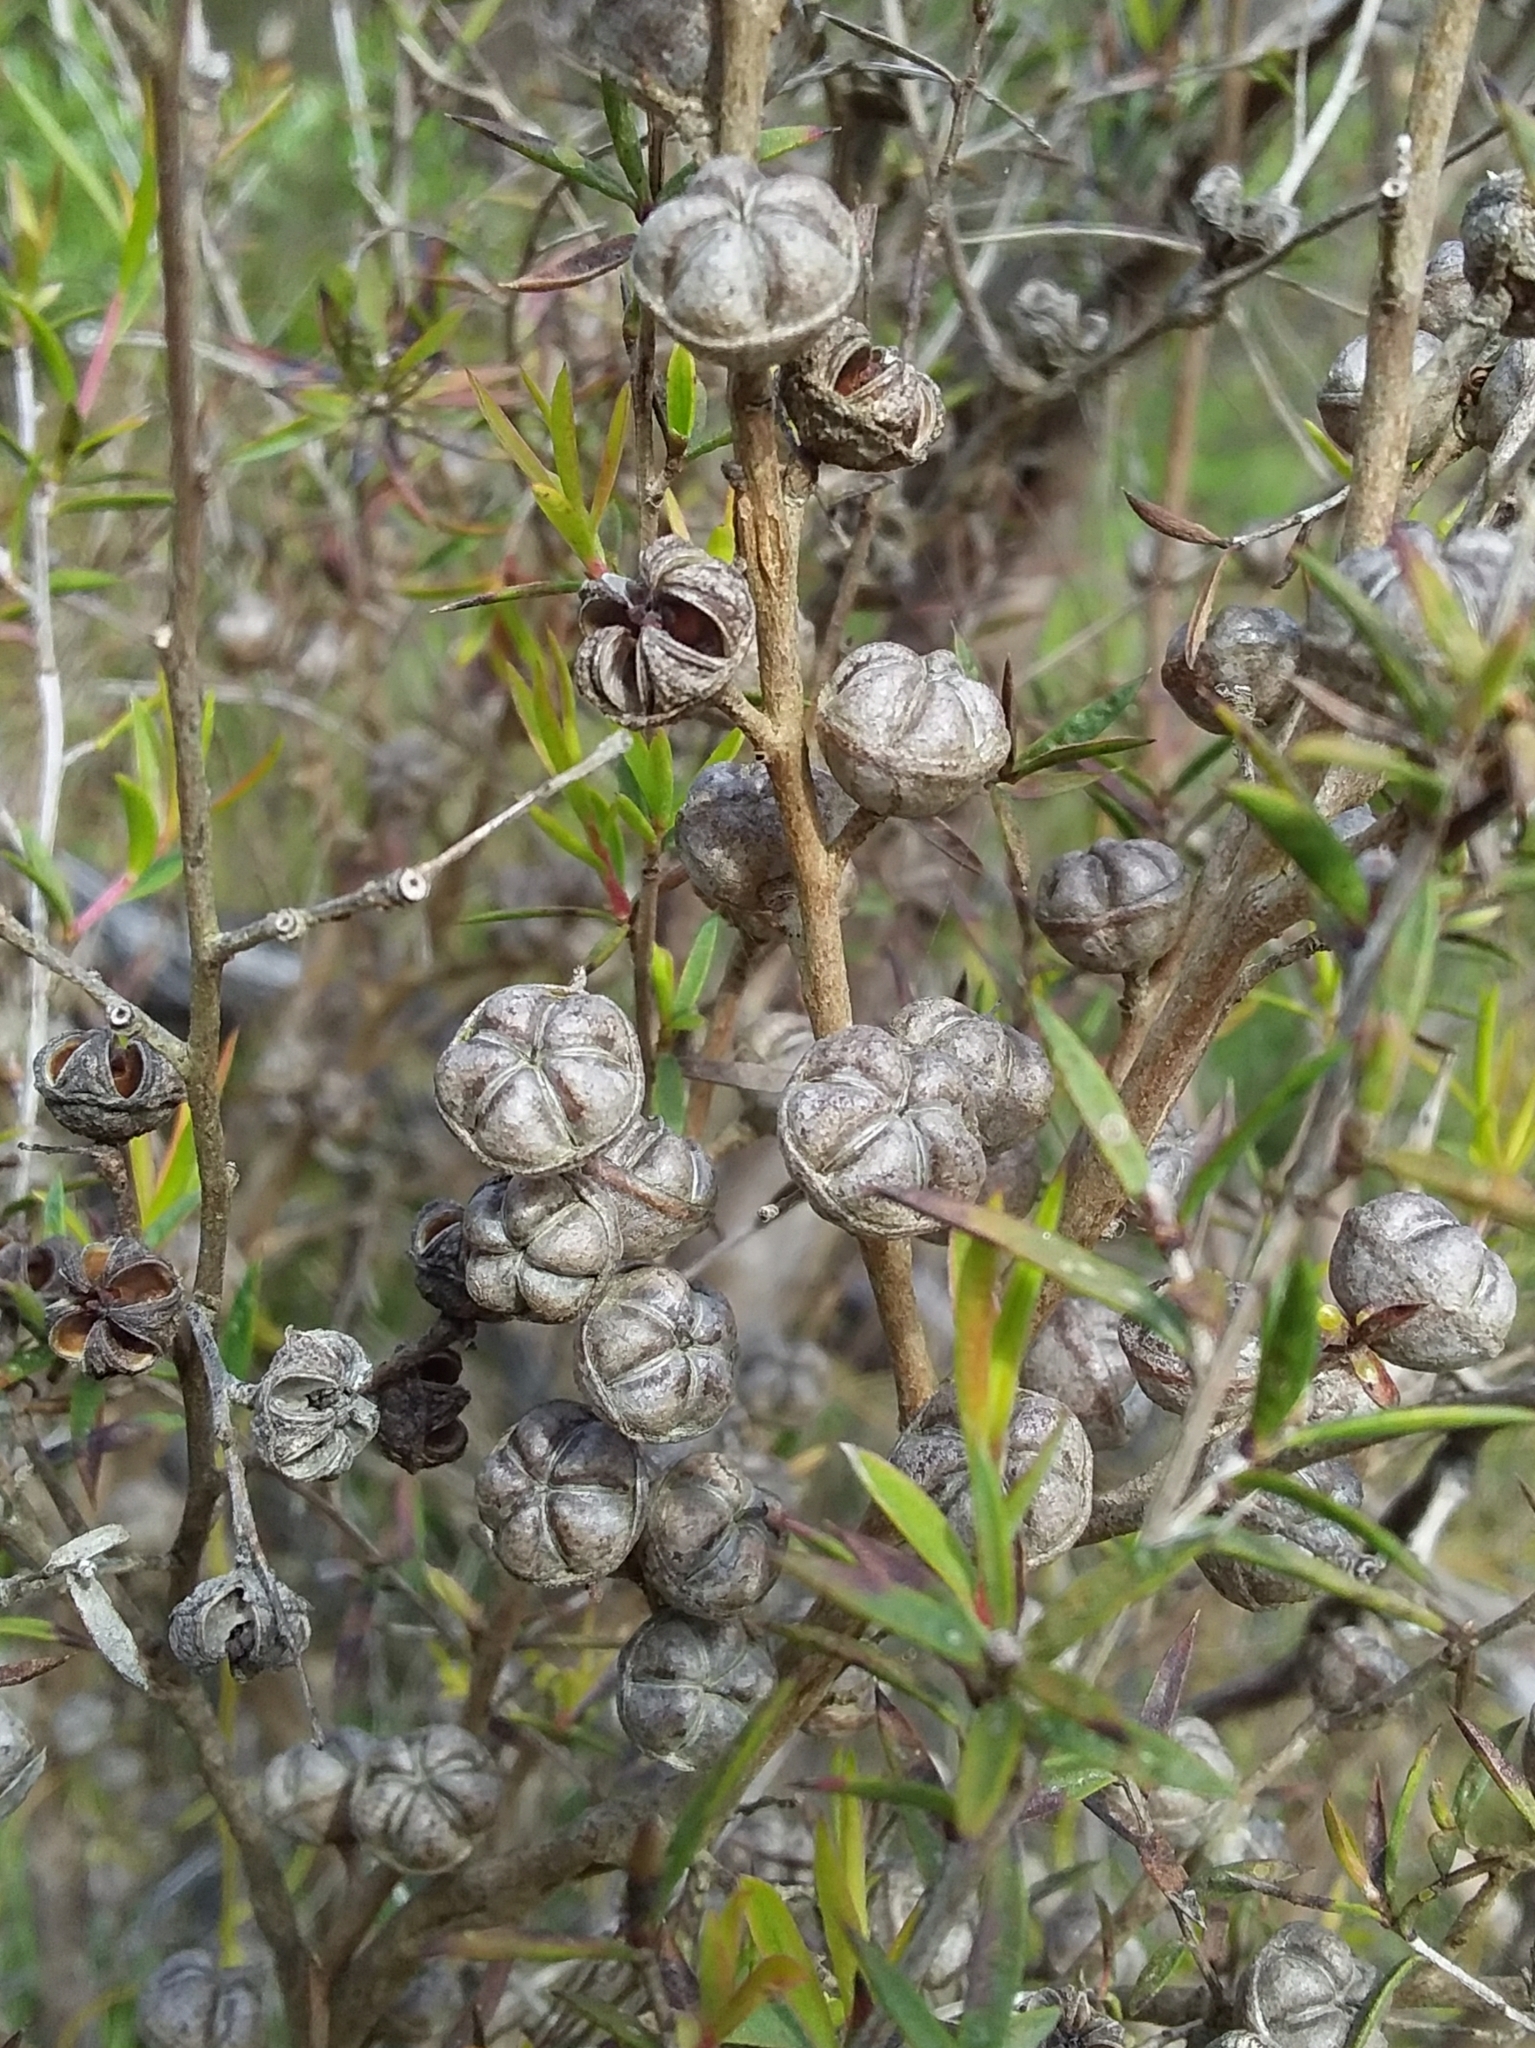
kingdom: Plantae
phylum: Tracheophyta
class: Magnoliopsida
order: Myrtales
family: Myrtaceae
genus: Leptospermum
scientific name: Leptospermum continentale
